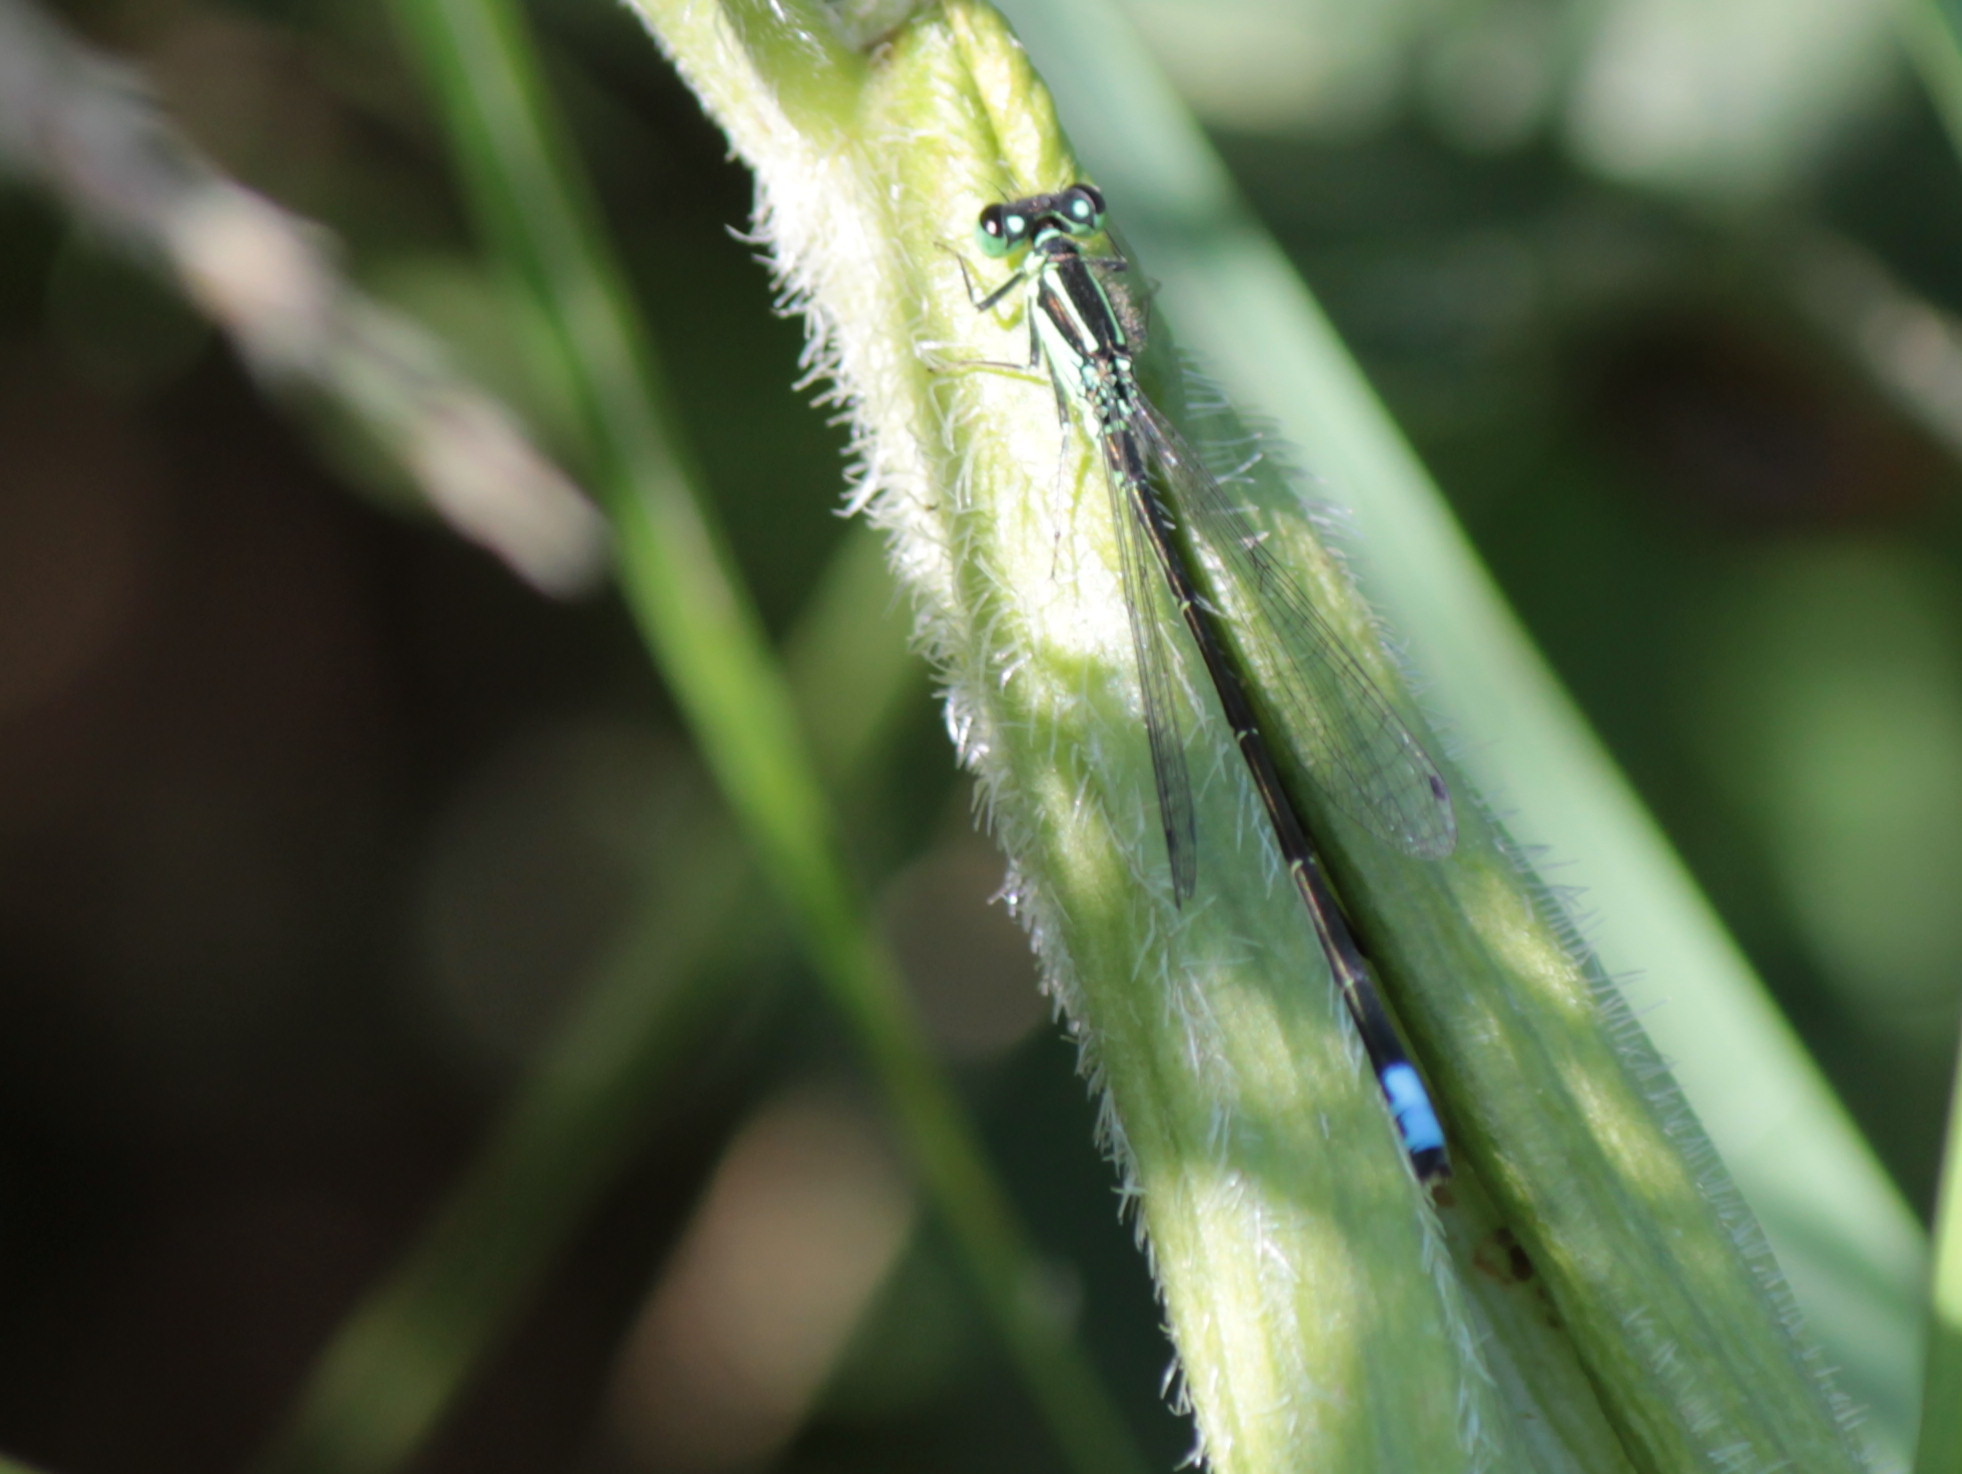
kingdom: Animalia
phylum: Arthropoda
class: Insecta
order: Odonata
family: Coenagrionidae
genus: Ischnura
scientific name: Ischnura verticalis
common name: Eastern forktail
